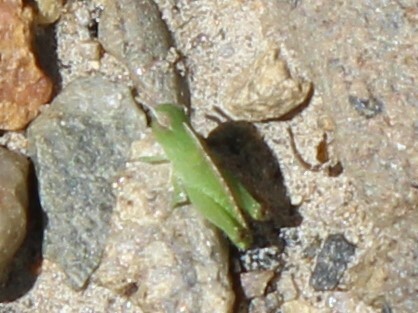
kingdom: Animalia
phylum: Arthropoda
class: Insecta
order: Orthoptera
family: Acrididae
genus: Chortophaga
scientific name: Chortophaga viridifasciata
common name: Green-striped grasshopper
